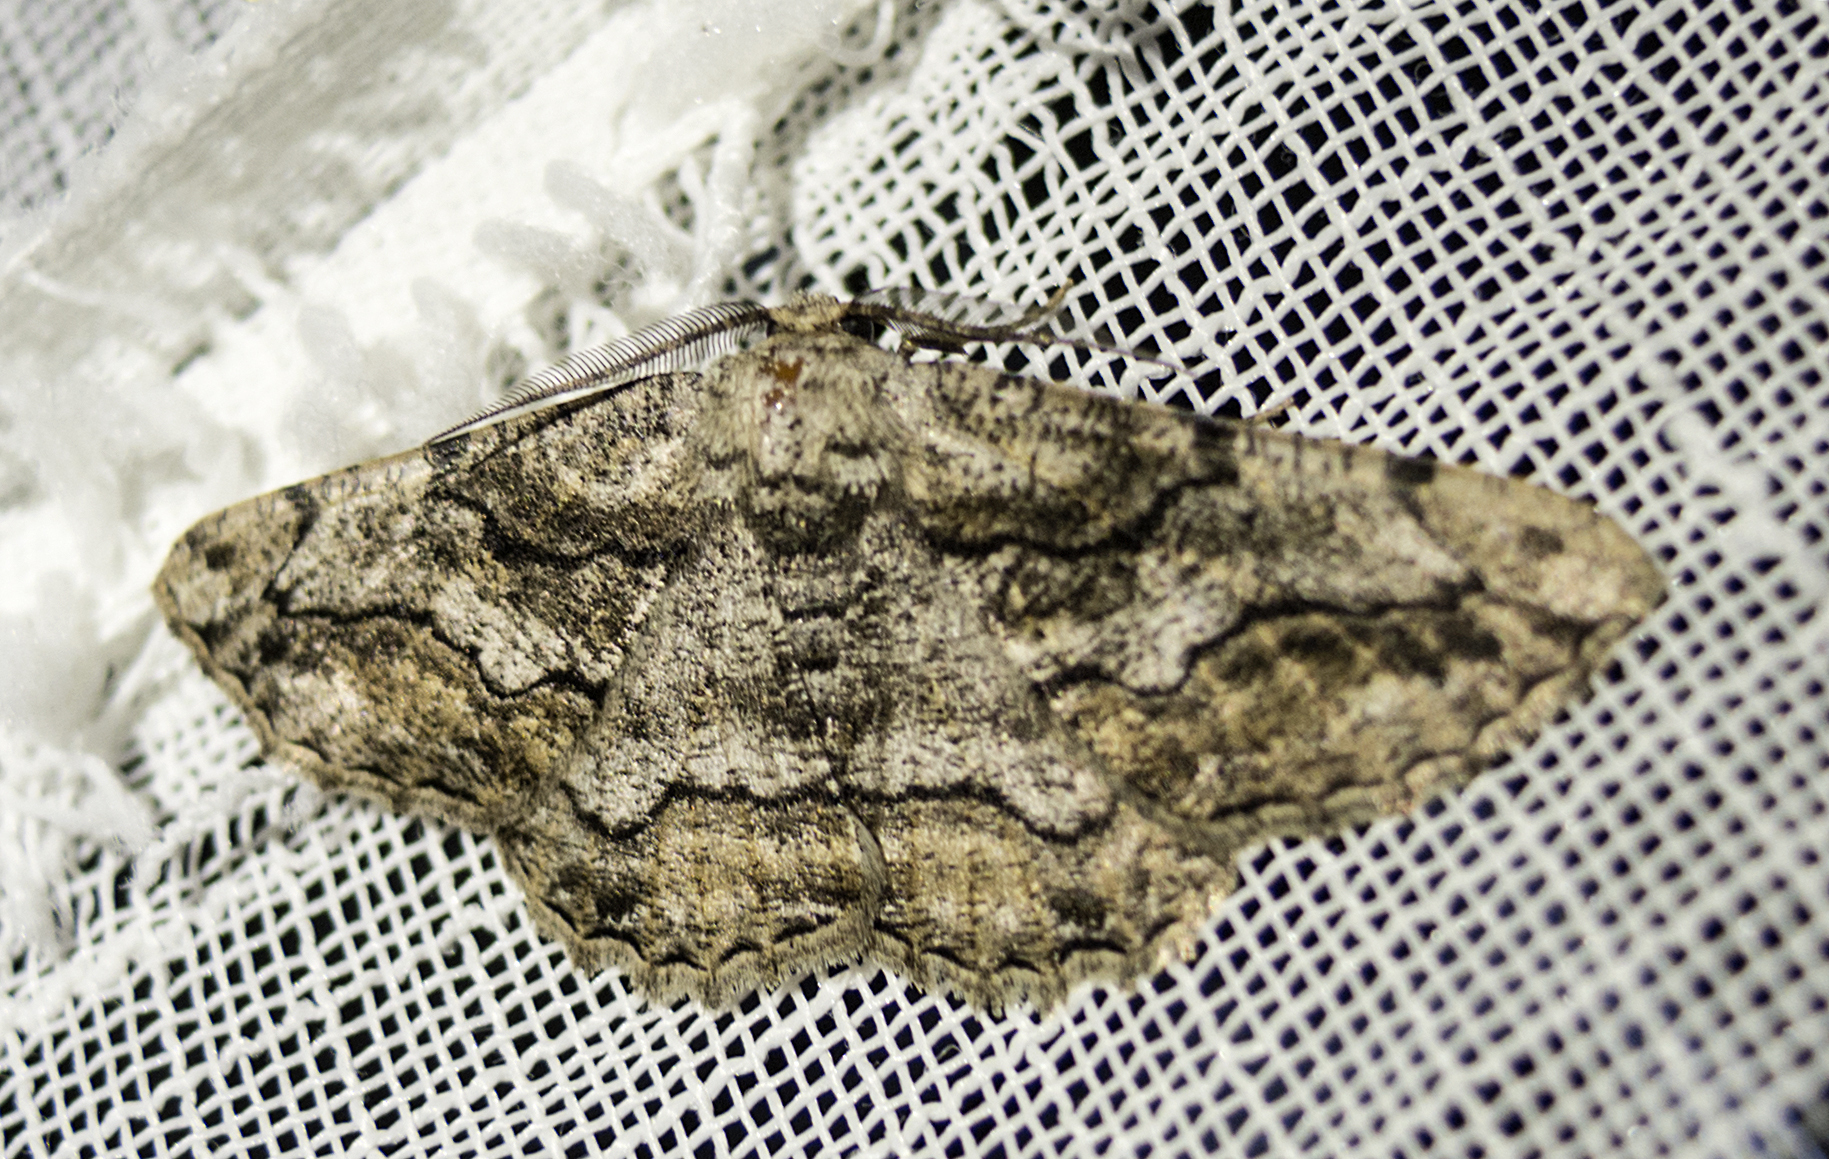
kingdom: Animalia
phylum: Arthropoda
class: Insecta
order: Lepidoptera
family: Geometridae
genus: Synopsia
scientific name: Synopsia sociaria
